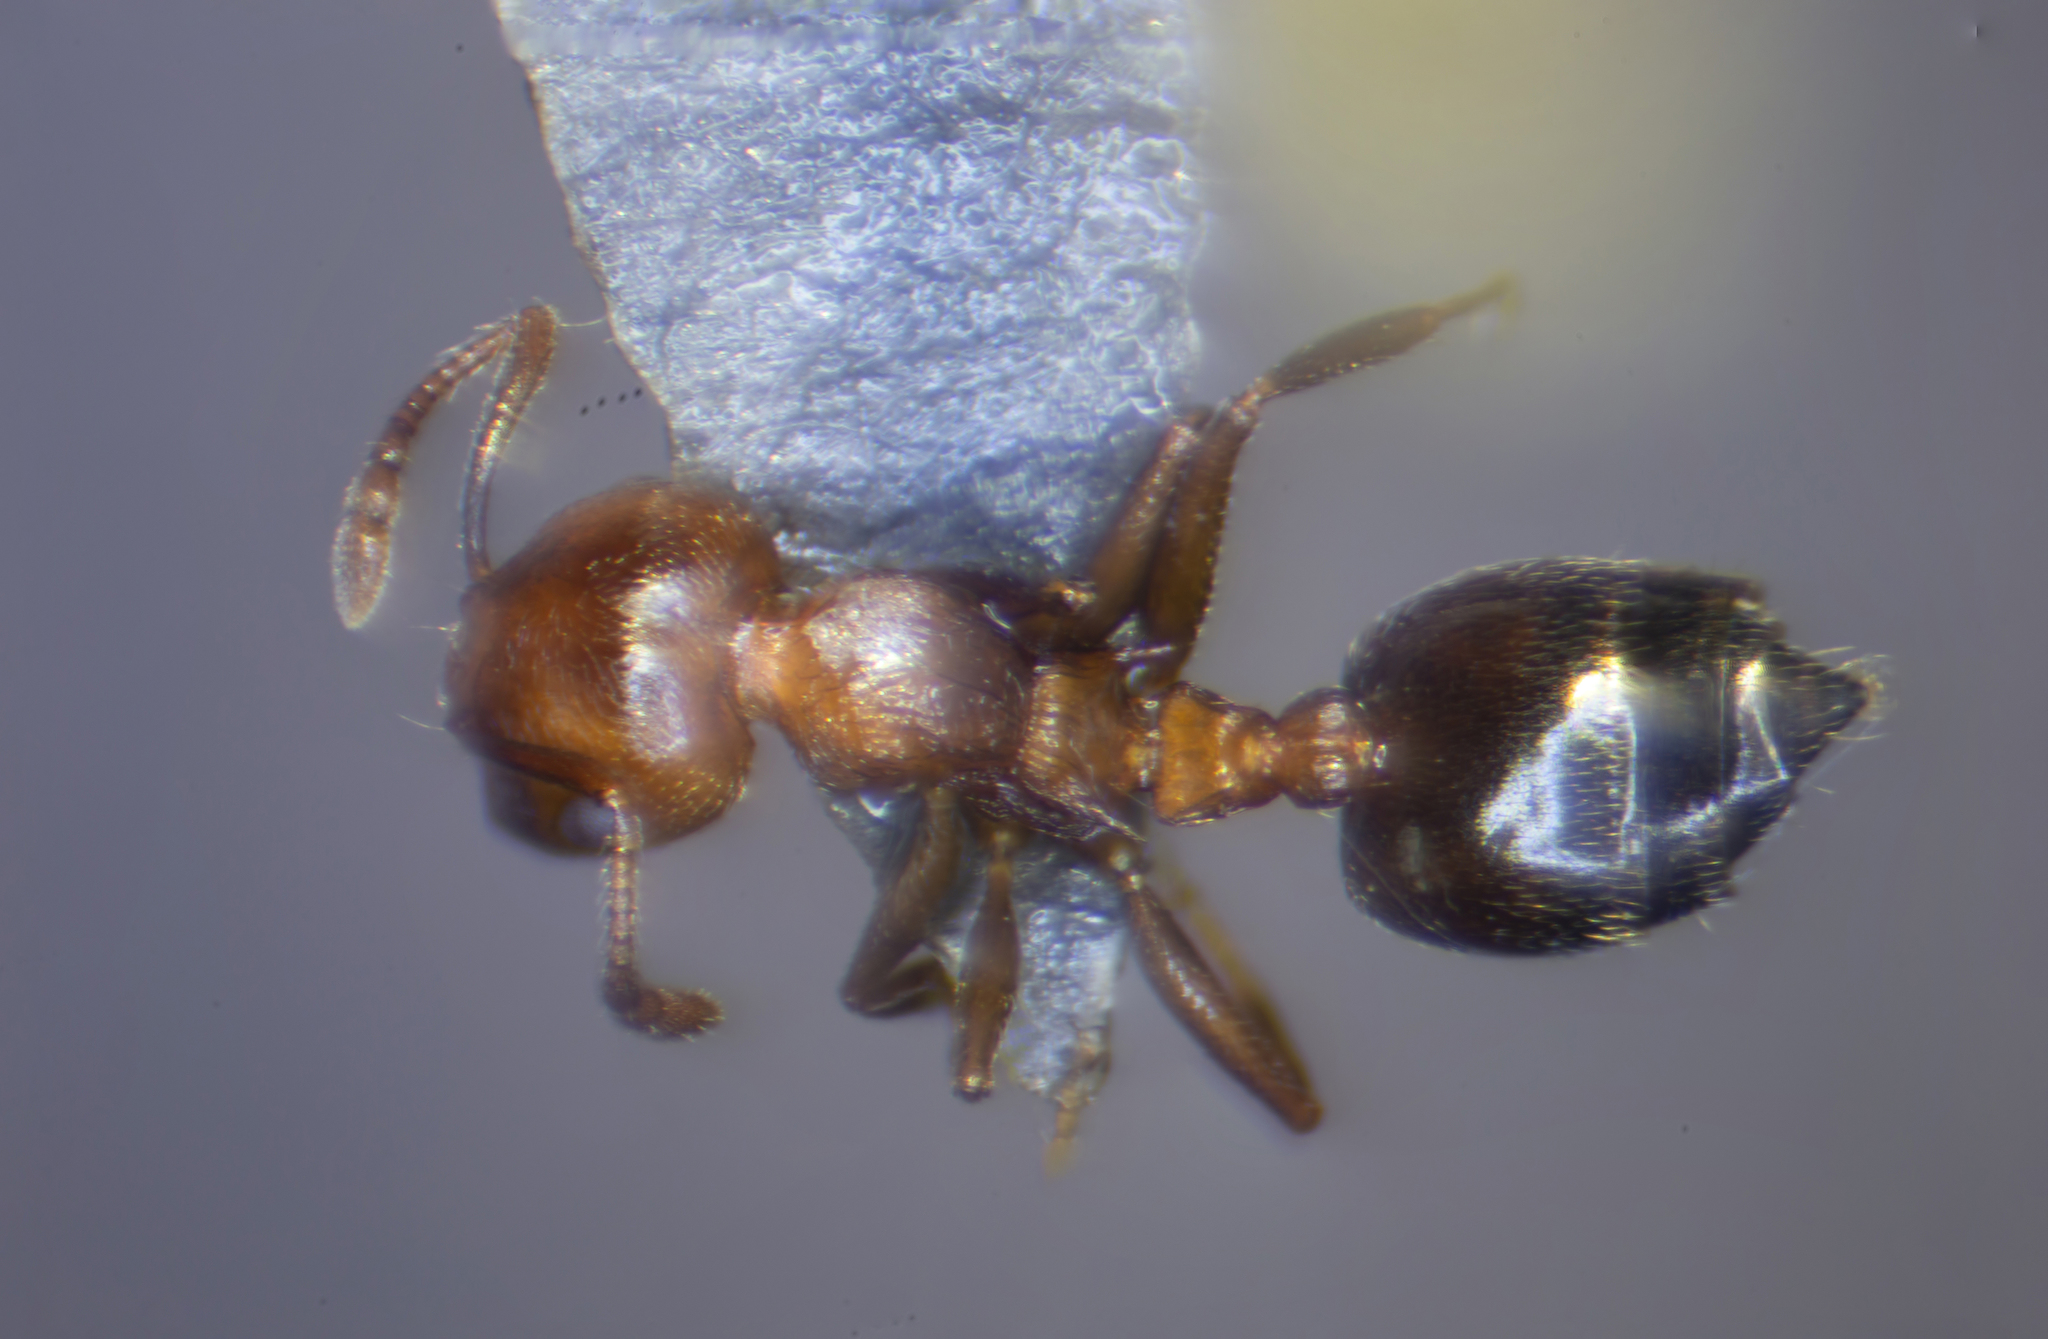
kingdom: Animalia
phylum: Arthropoda
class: Insecta
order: Hymenoptera
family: Formicidae
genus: Crematogaster
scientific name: Crematogaster schmidti
